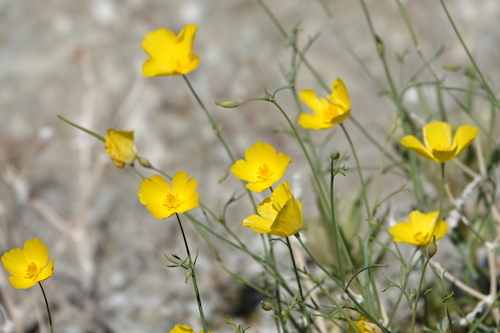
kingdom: Plantae
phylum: Tracheophyta
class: Magnoliopsida
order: Ranunculales
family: Papaveraceae
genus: Eschscholzia
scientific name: Eschscholzia parishii
